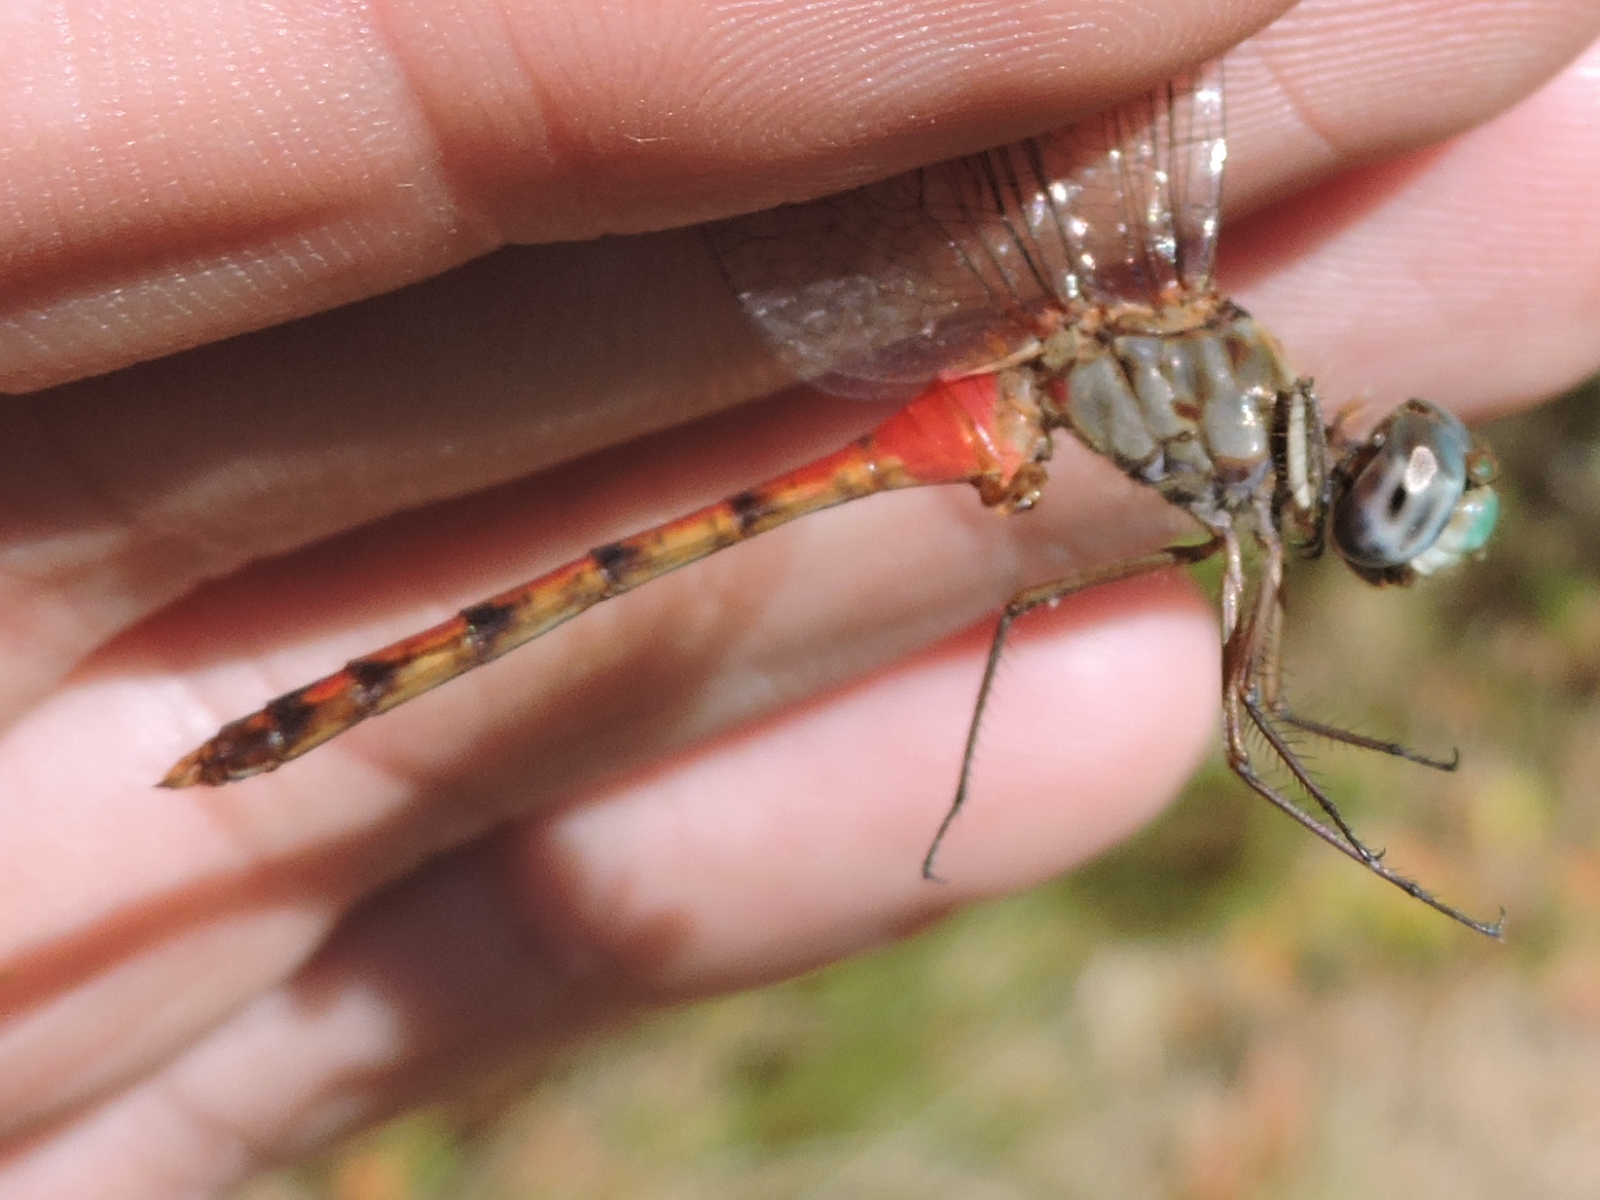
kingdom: Animalia
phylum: Arthropoda
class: Insecta
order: Odonata
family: Libellulidae
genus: Sympetrum
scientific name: Sympetrum ambiguum
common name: Blue-faced meadowhawk
